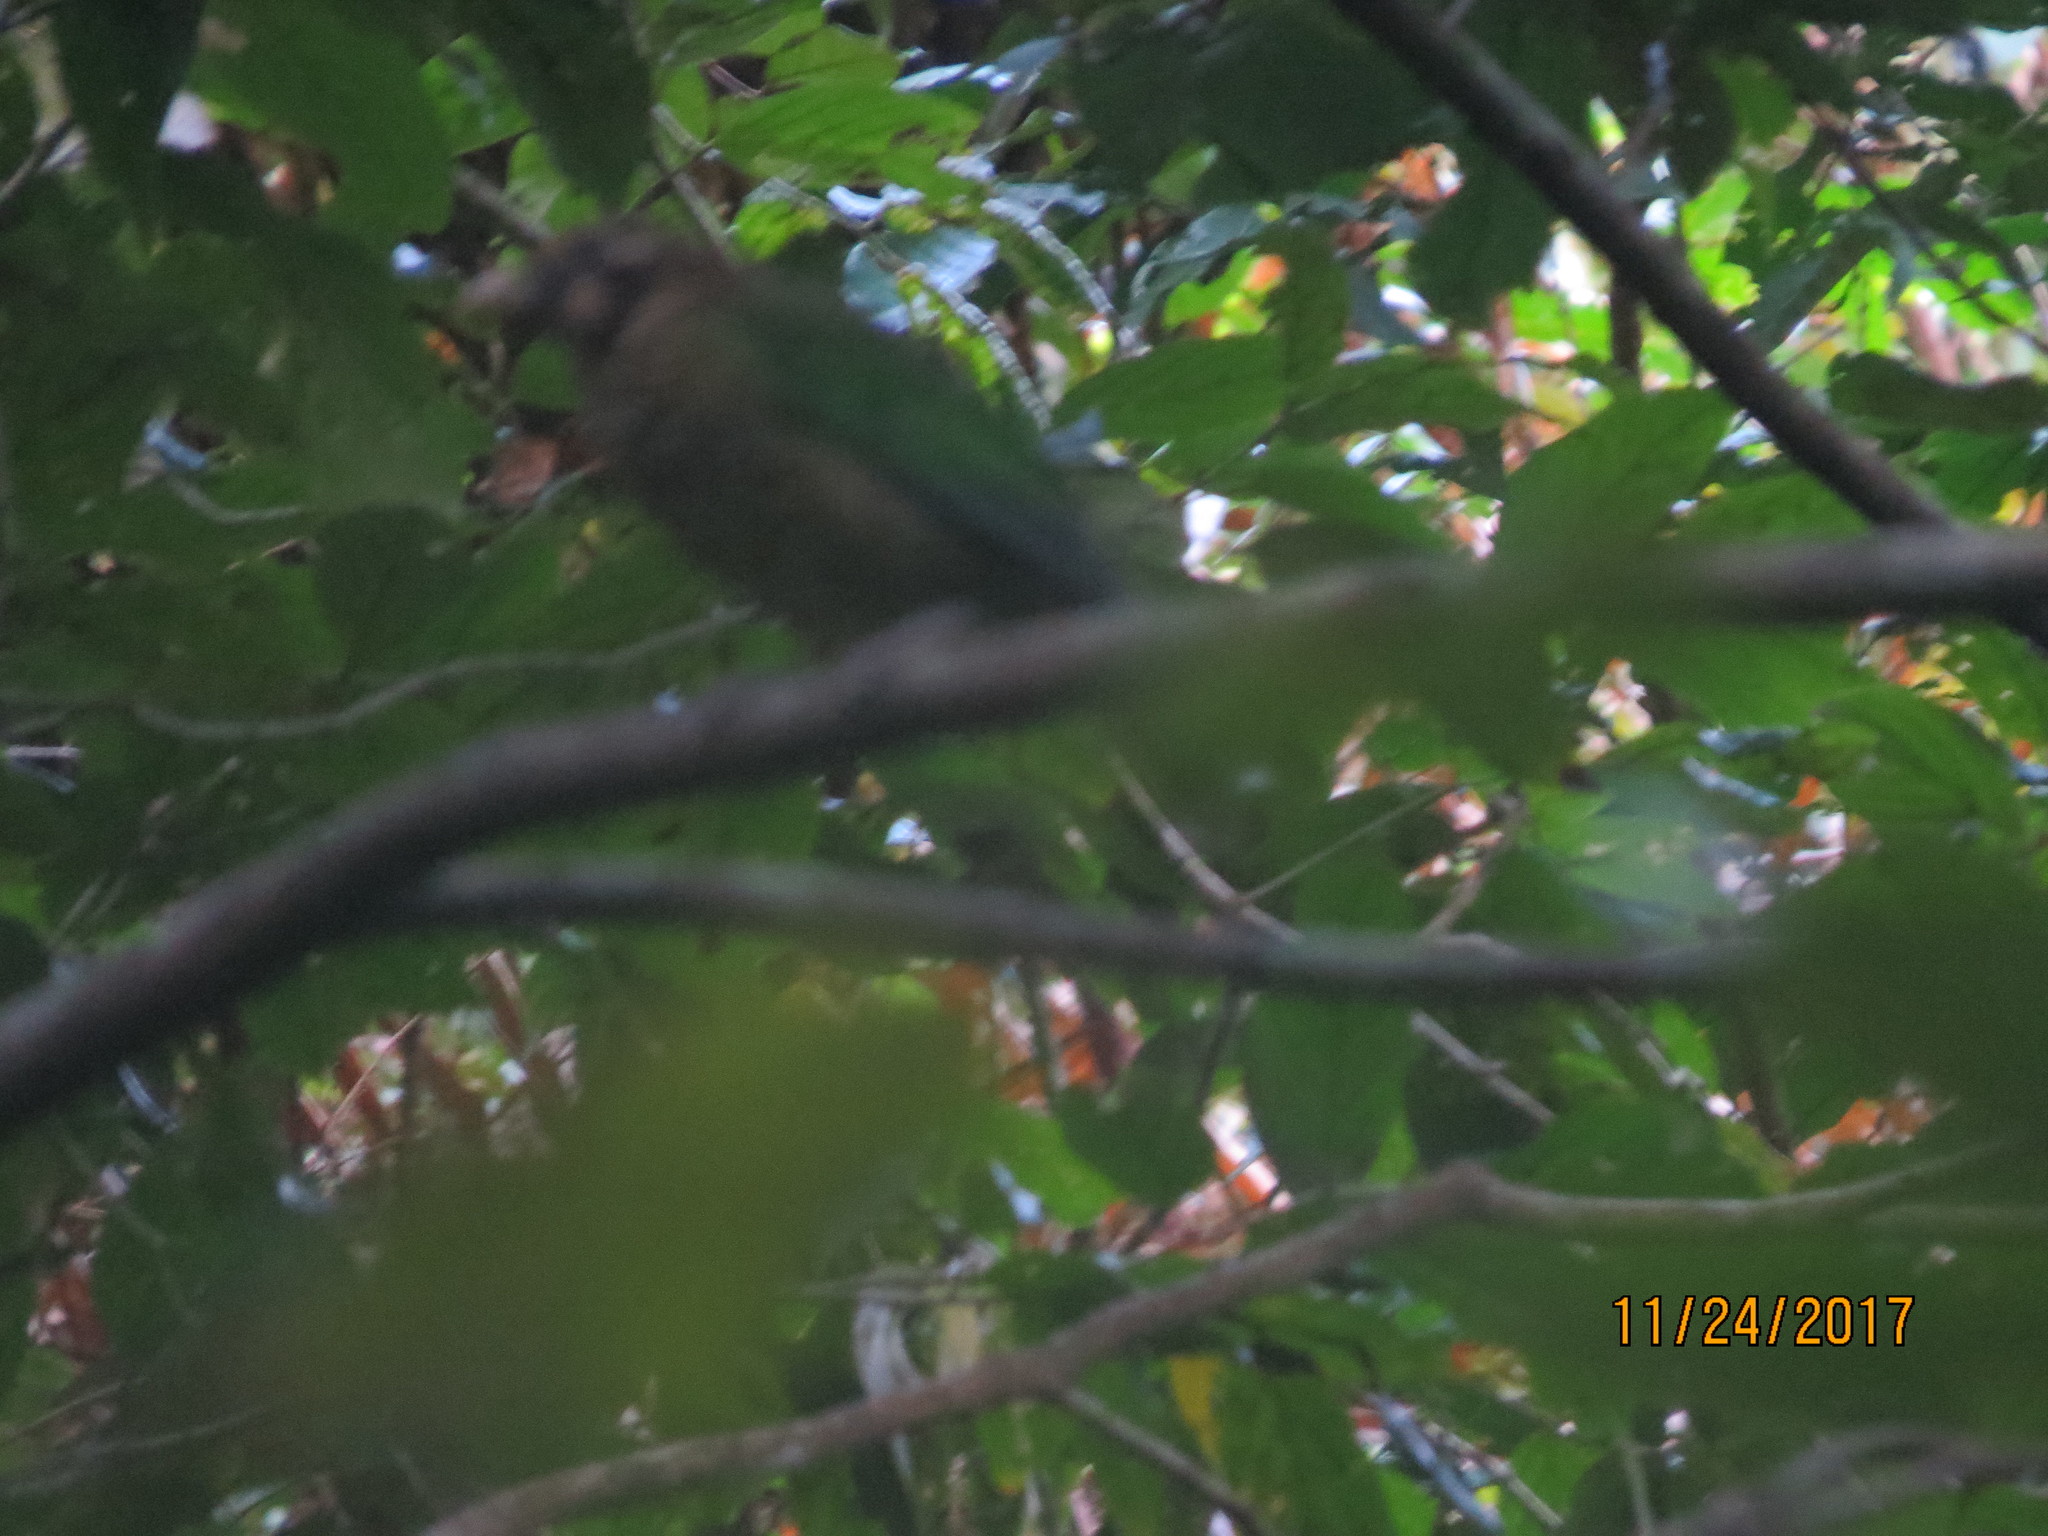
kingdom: Animalia
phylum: Chordata
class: Aves
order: Passeriformes
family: Ptilonorhynchidae
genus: Ailuroedus
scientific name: Ailuroedus maculosus
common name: Spotted catbird
